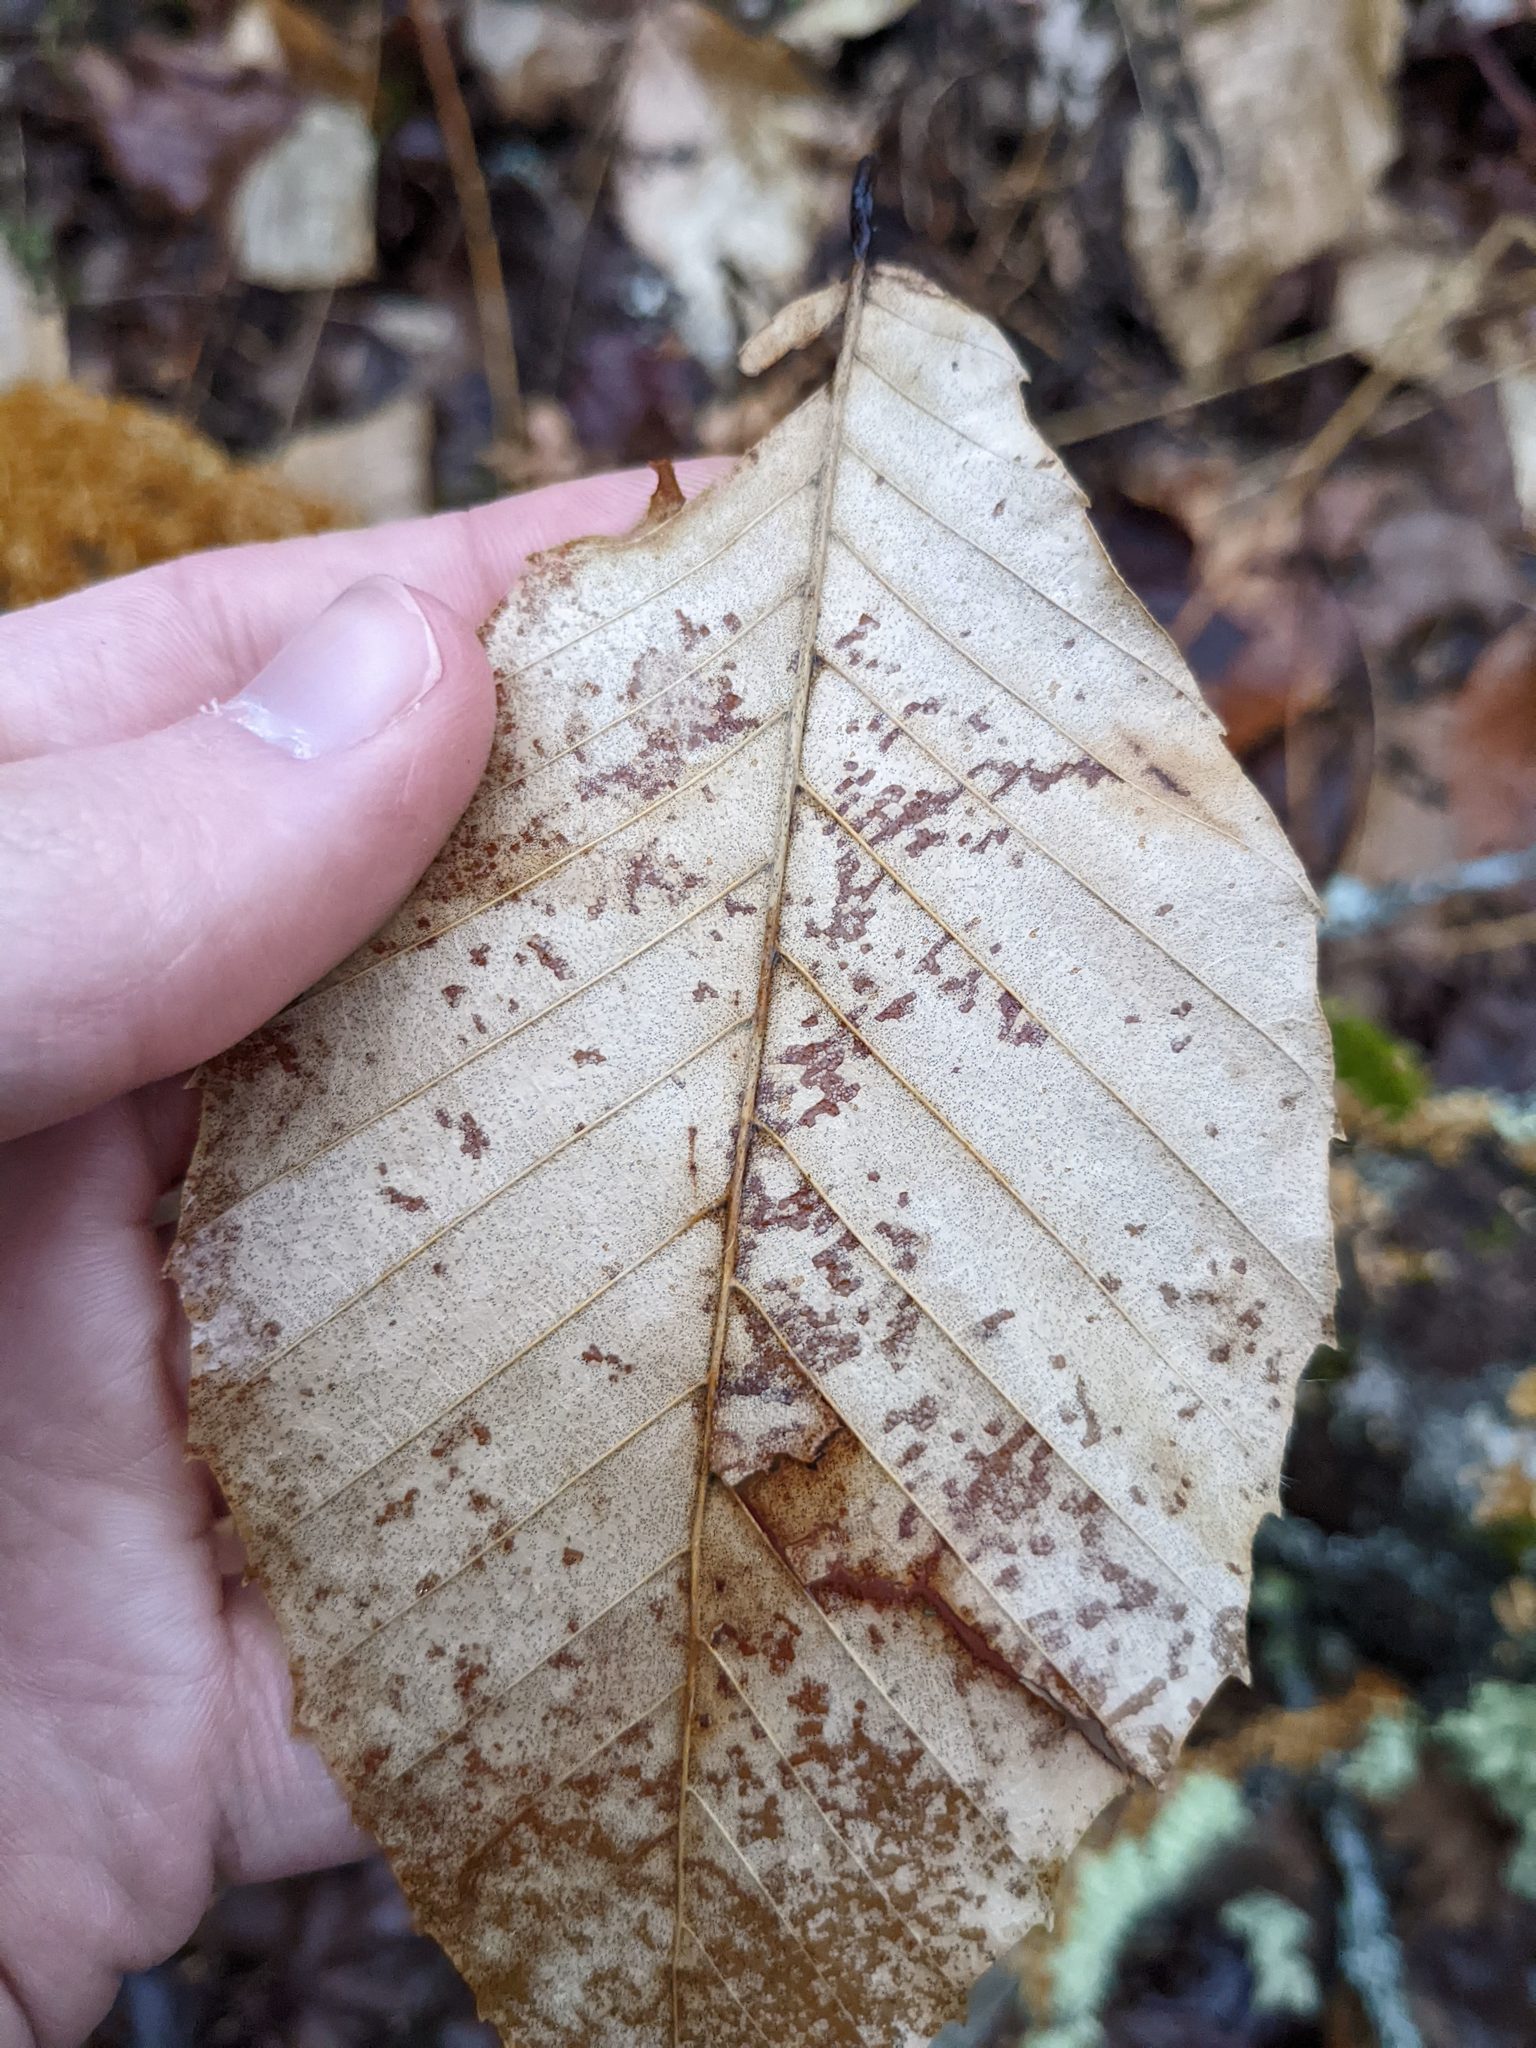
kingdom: Plantae
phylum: Tracheophyta
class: Magnoliopsida
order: Fagales
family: Fagaceae
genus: Fagus
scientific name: Fagus grandifolia
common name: American beech
